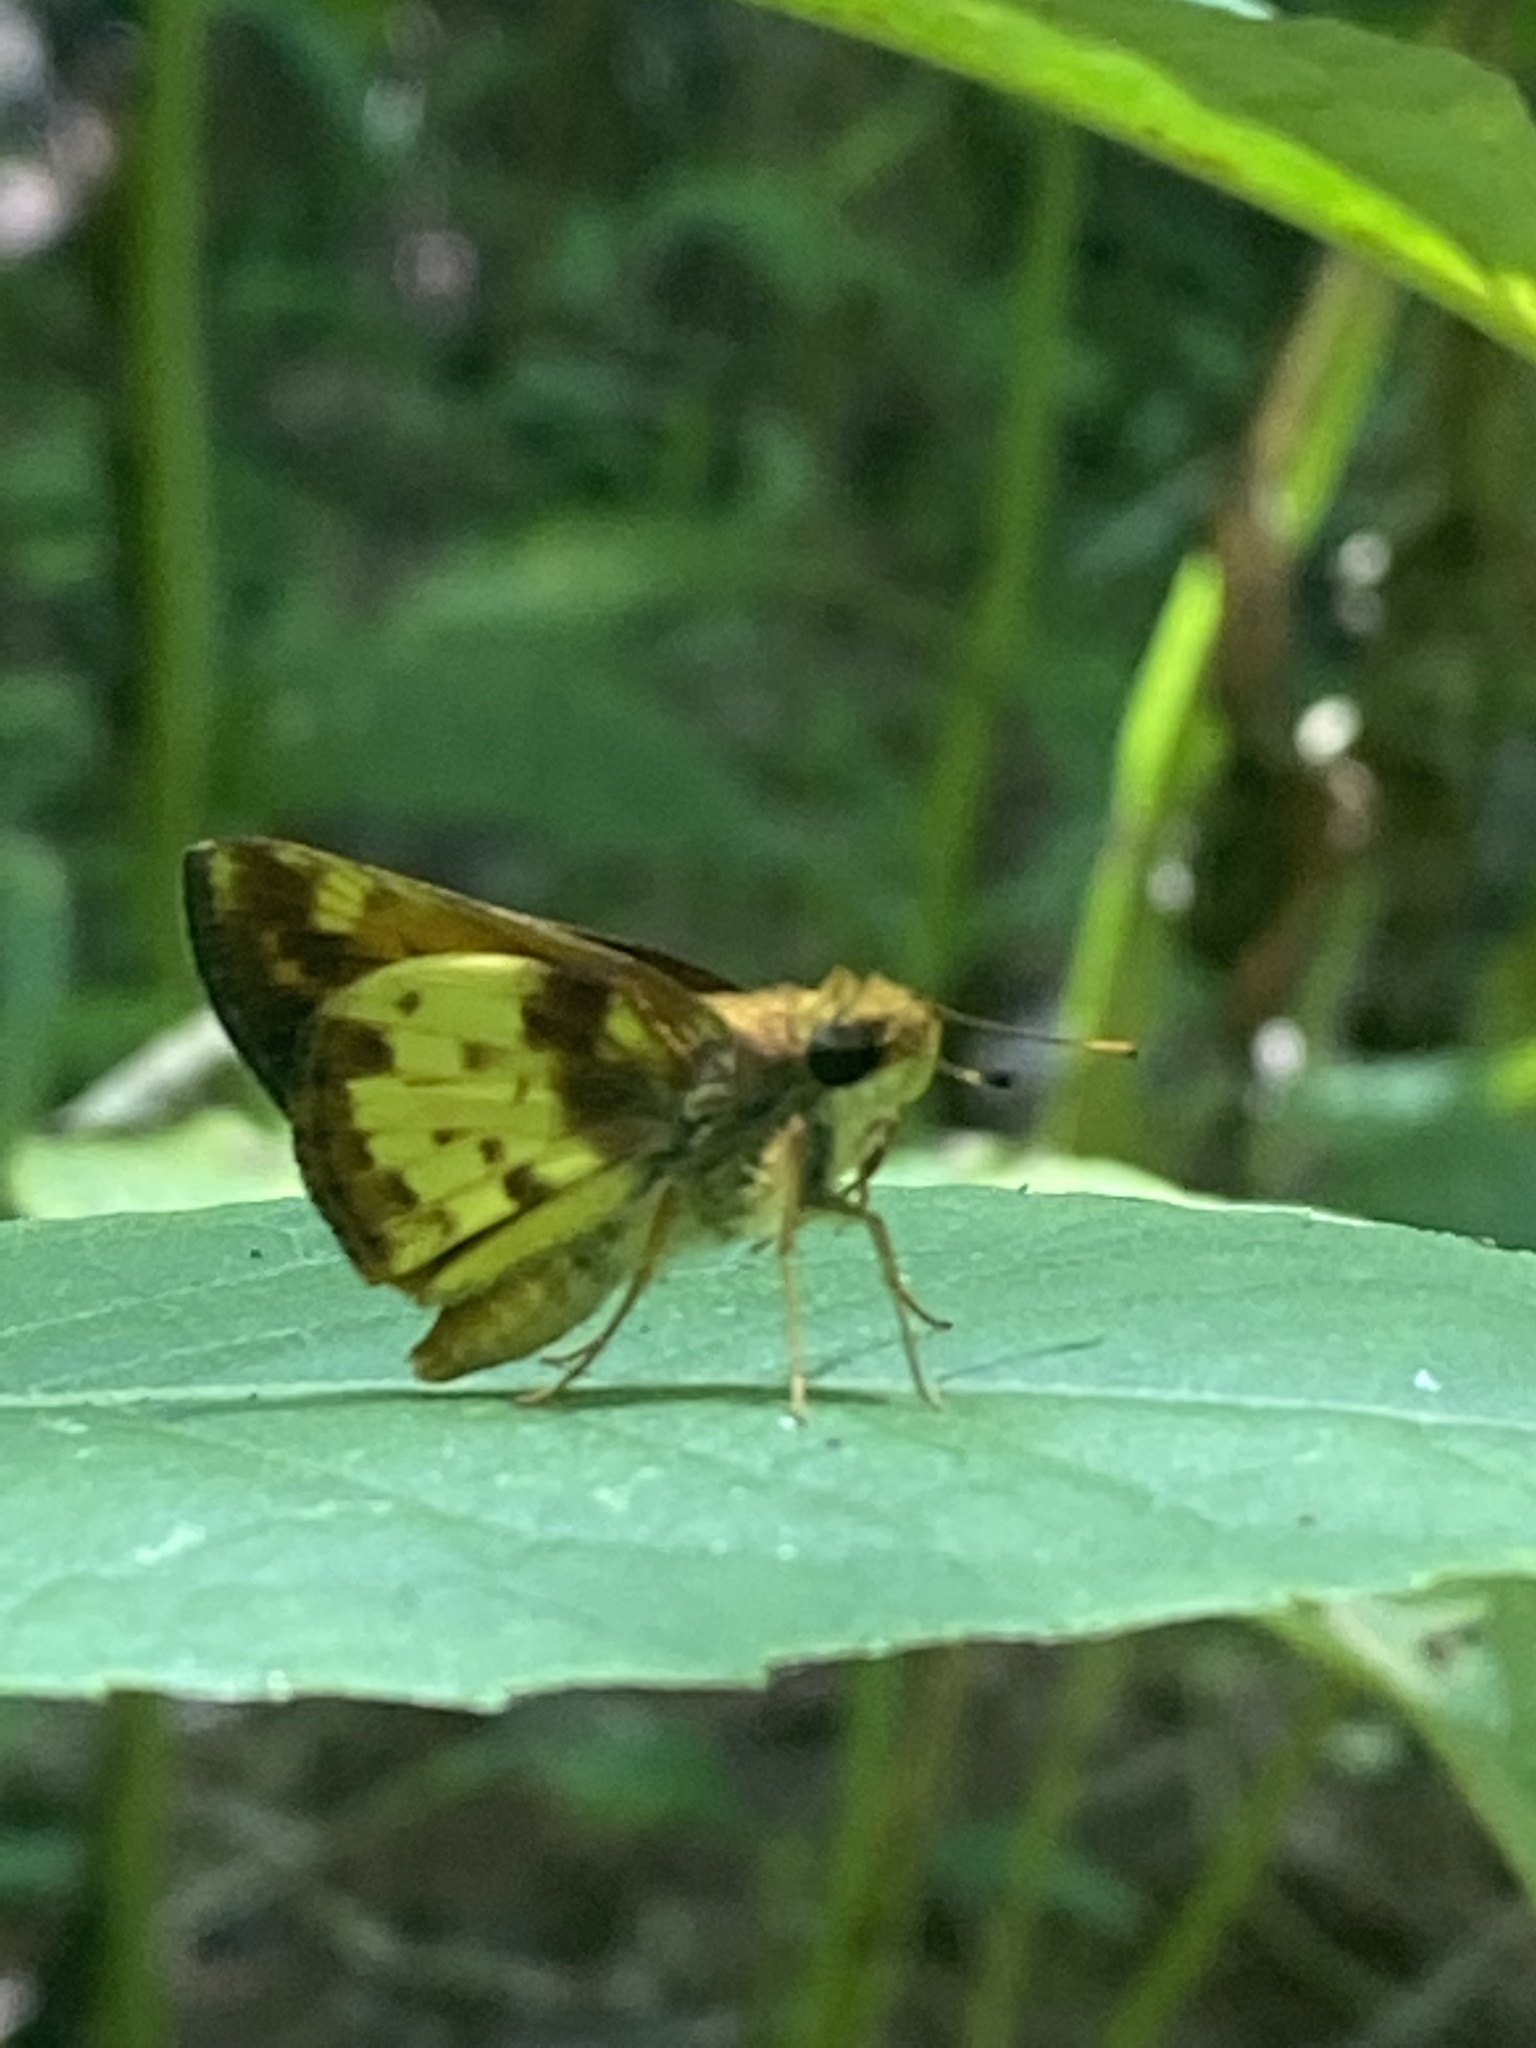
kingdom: Animalia
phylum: Arthropoda
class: Insecta
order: Lepidoptera
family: Hesperiidae
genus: Lon
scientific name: Lon zabulon
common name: Zabulon skipper
